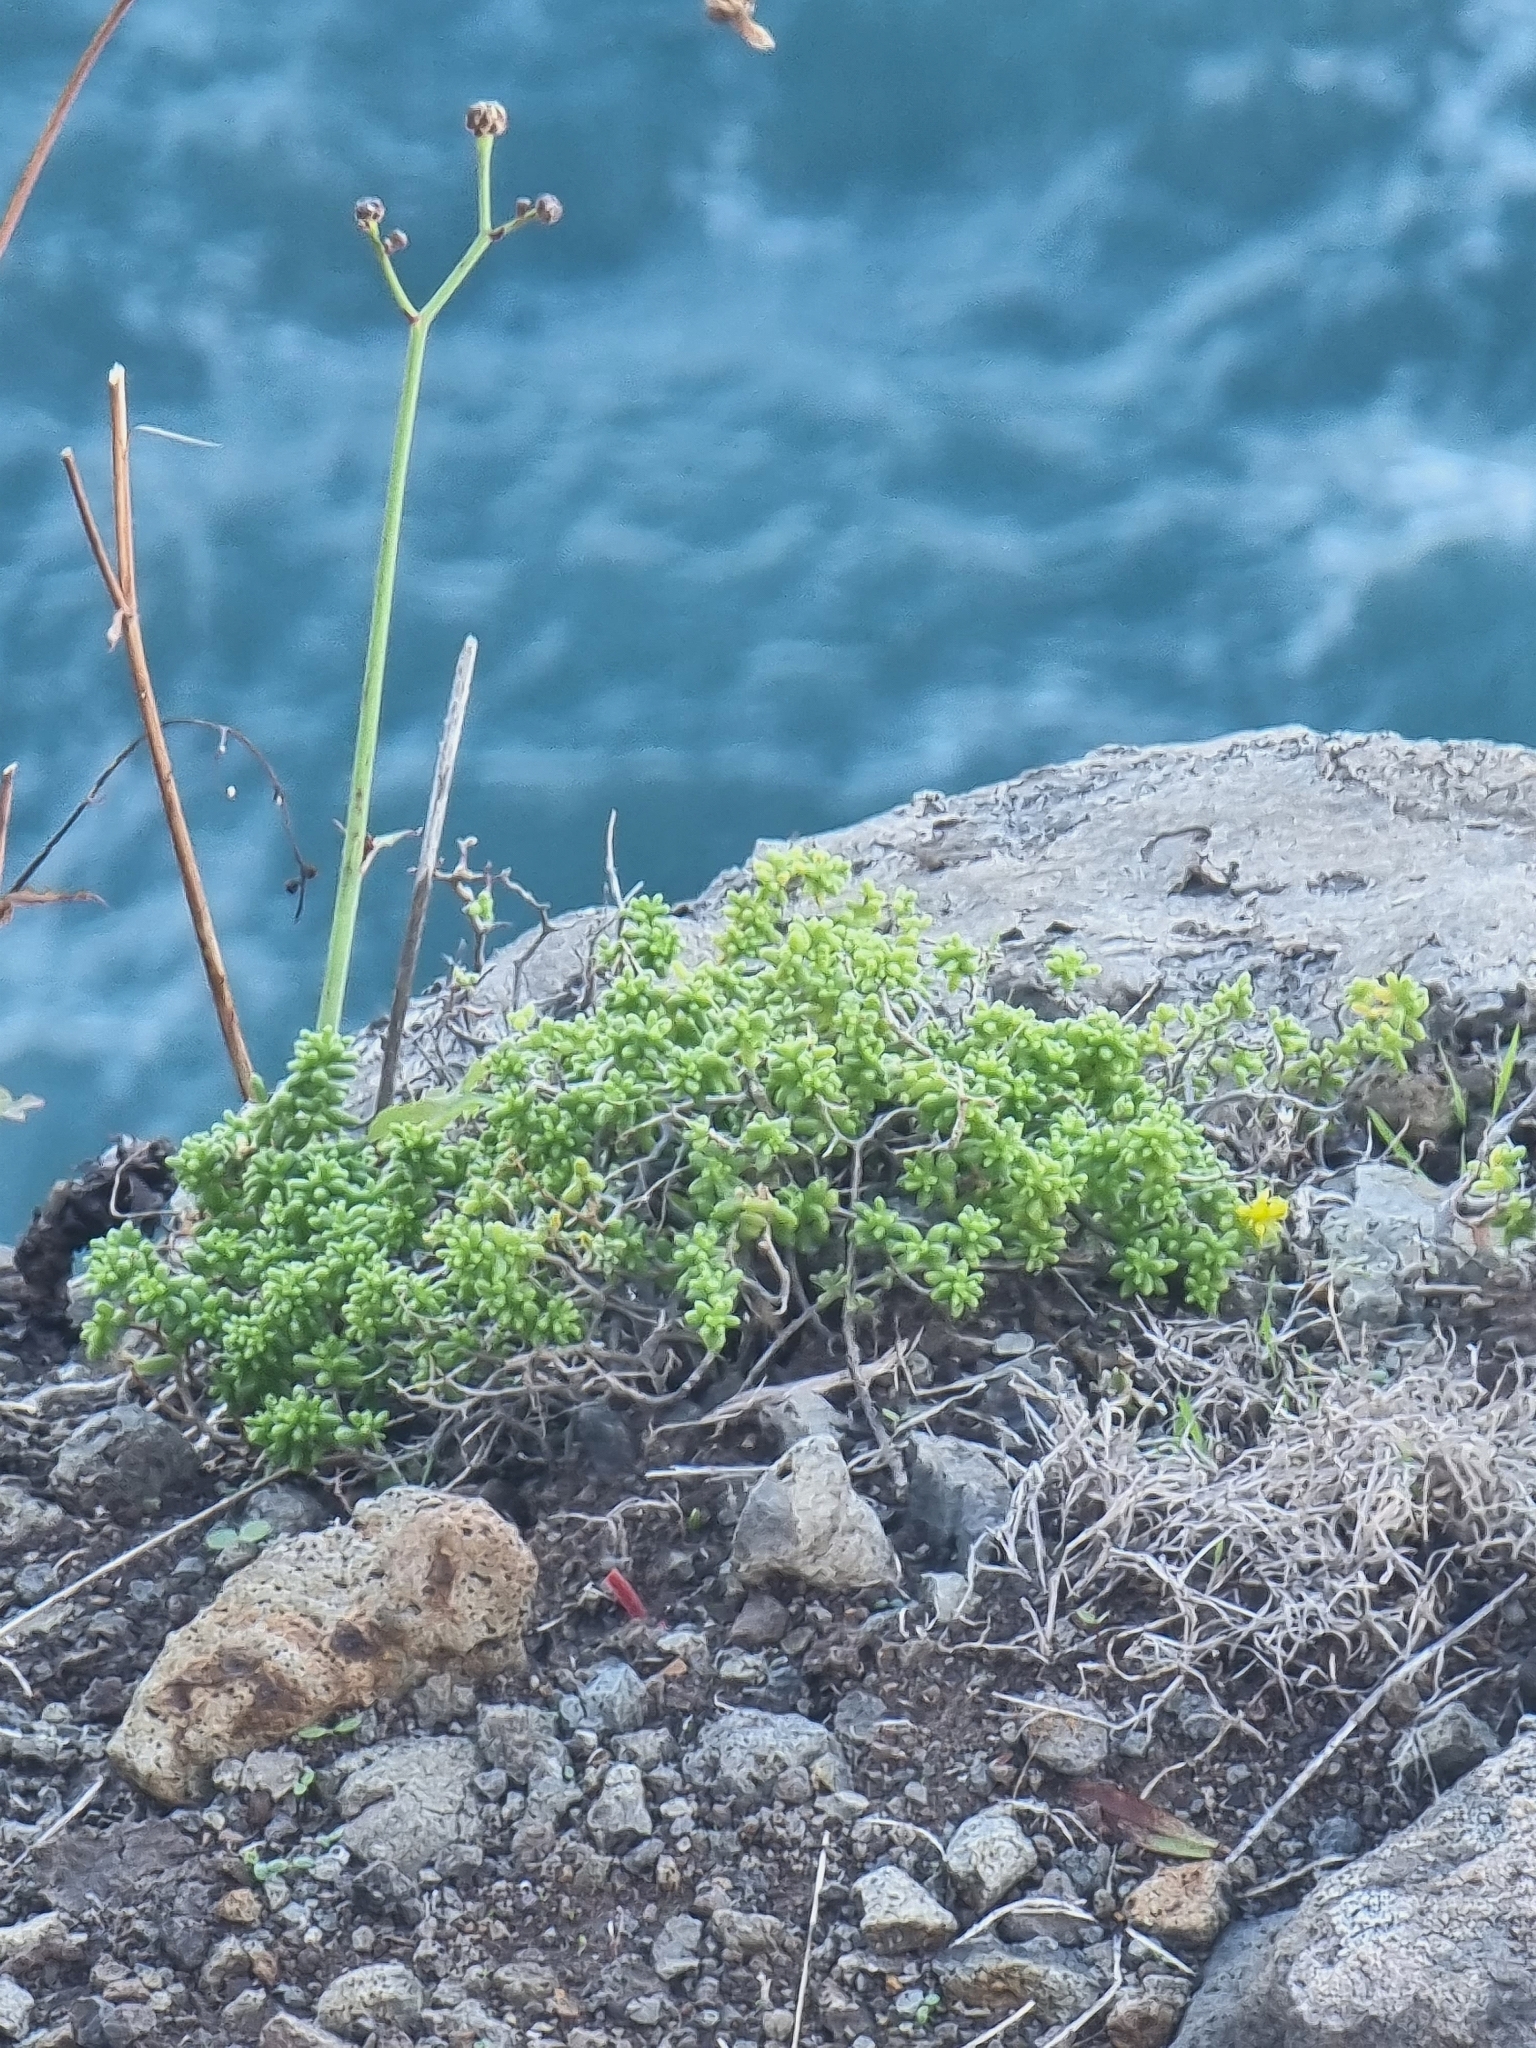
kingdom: Plantae
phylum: Tracheophyta
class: Magnoliopsida
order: Saxifragales
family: Crassulaceae
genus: Sedum
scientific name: Sedum brissemoretii
